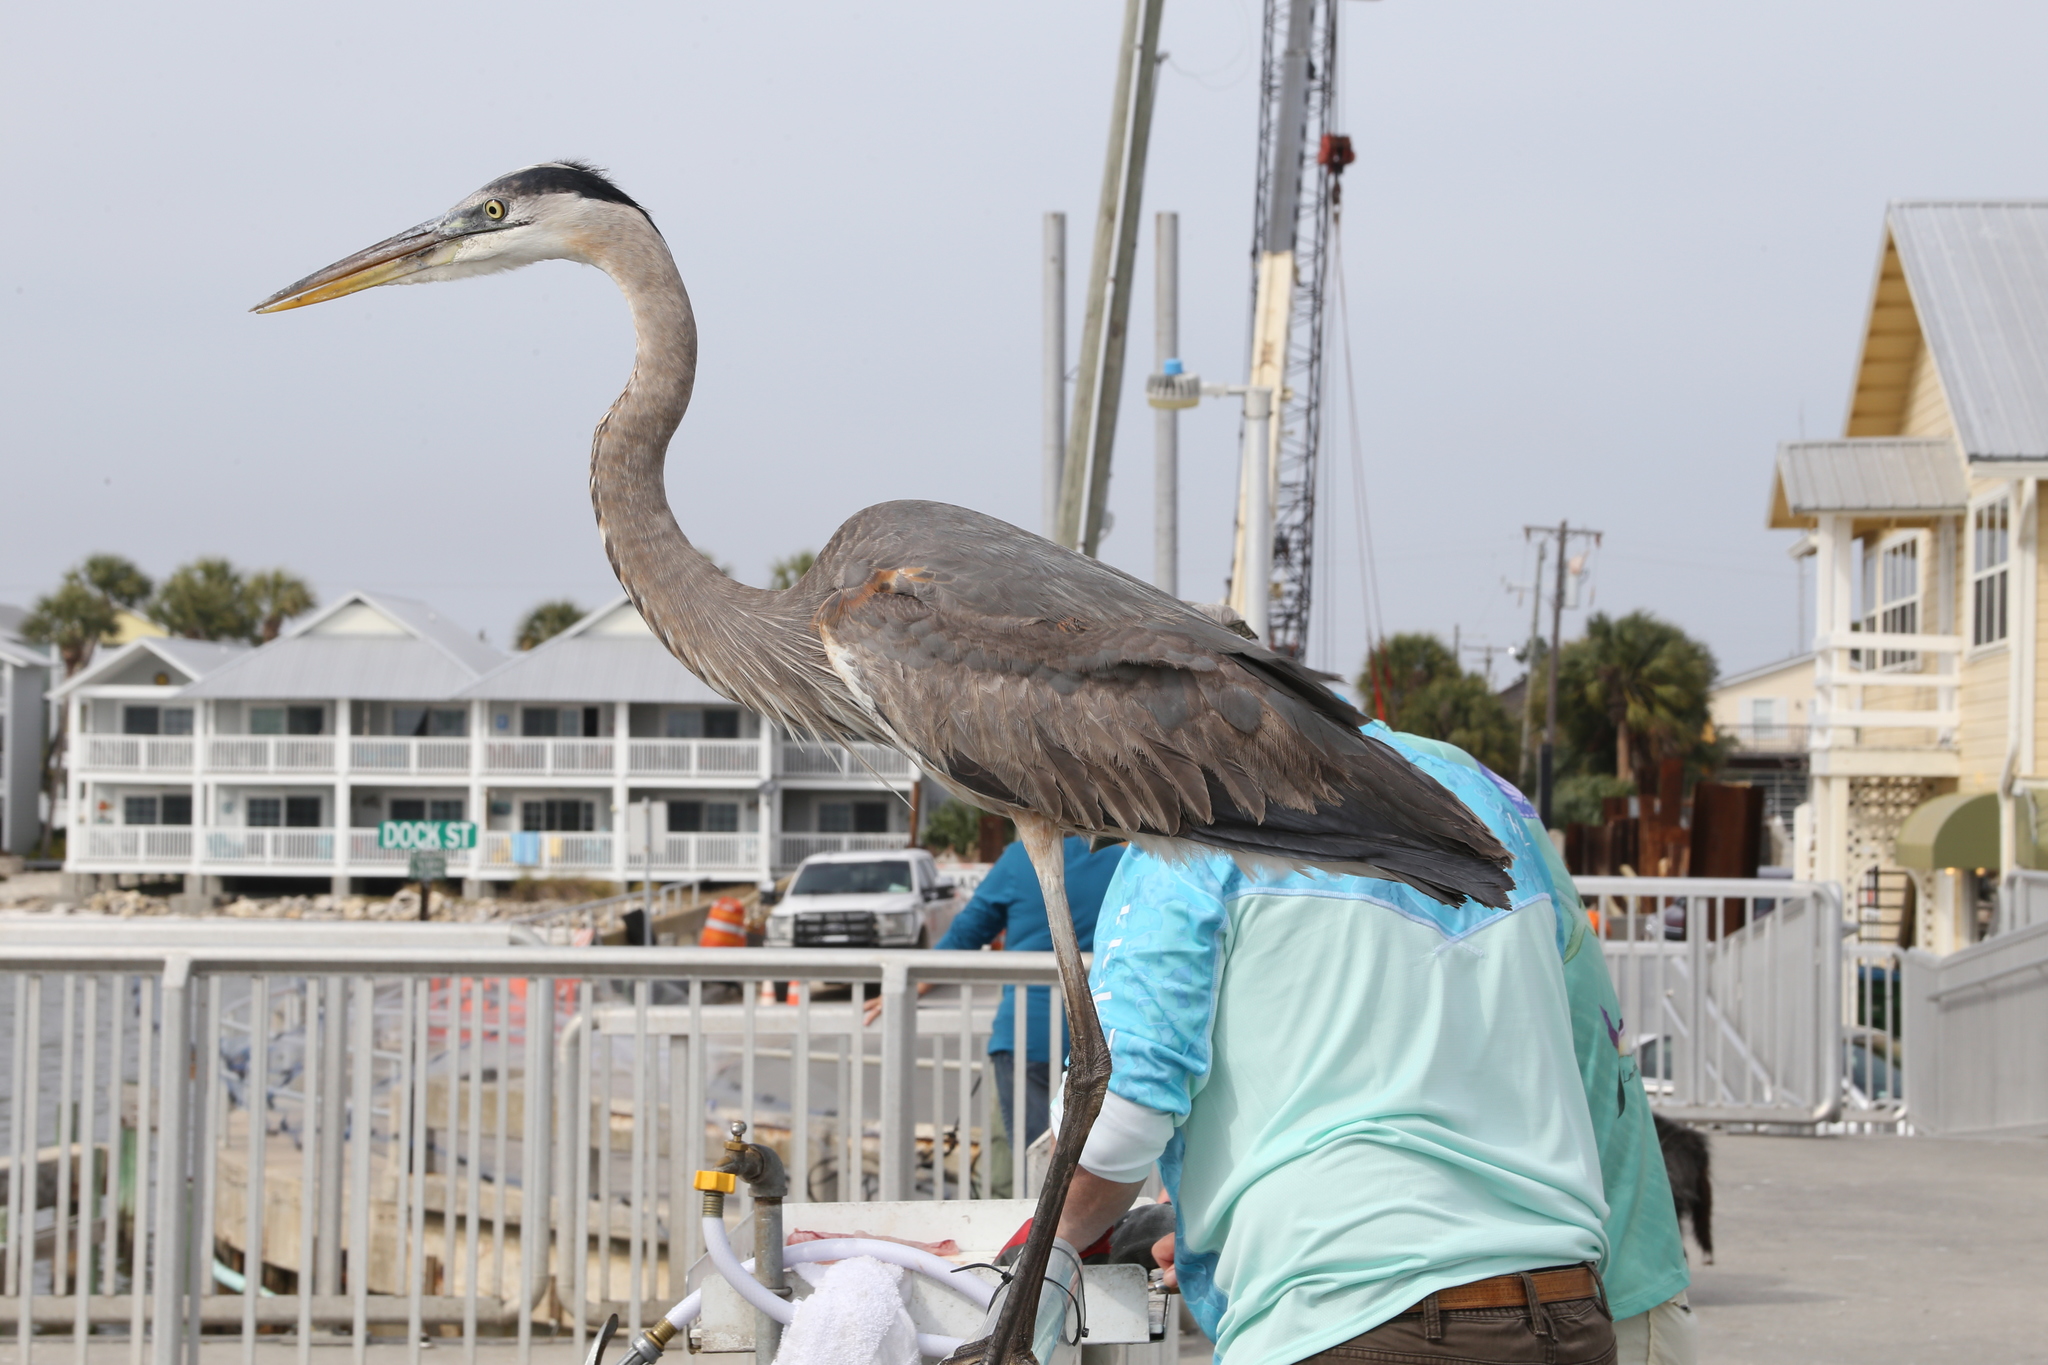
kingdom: Animalia
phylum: Chordata
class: Aves
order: Pelecaniformes
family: Ardeidae
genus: Ardea
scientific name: Ardea herodias
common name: Great blue heron
